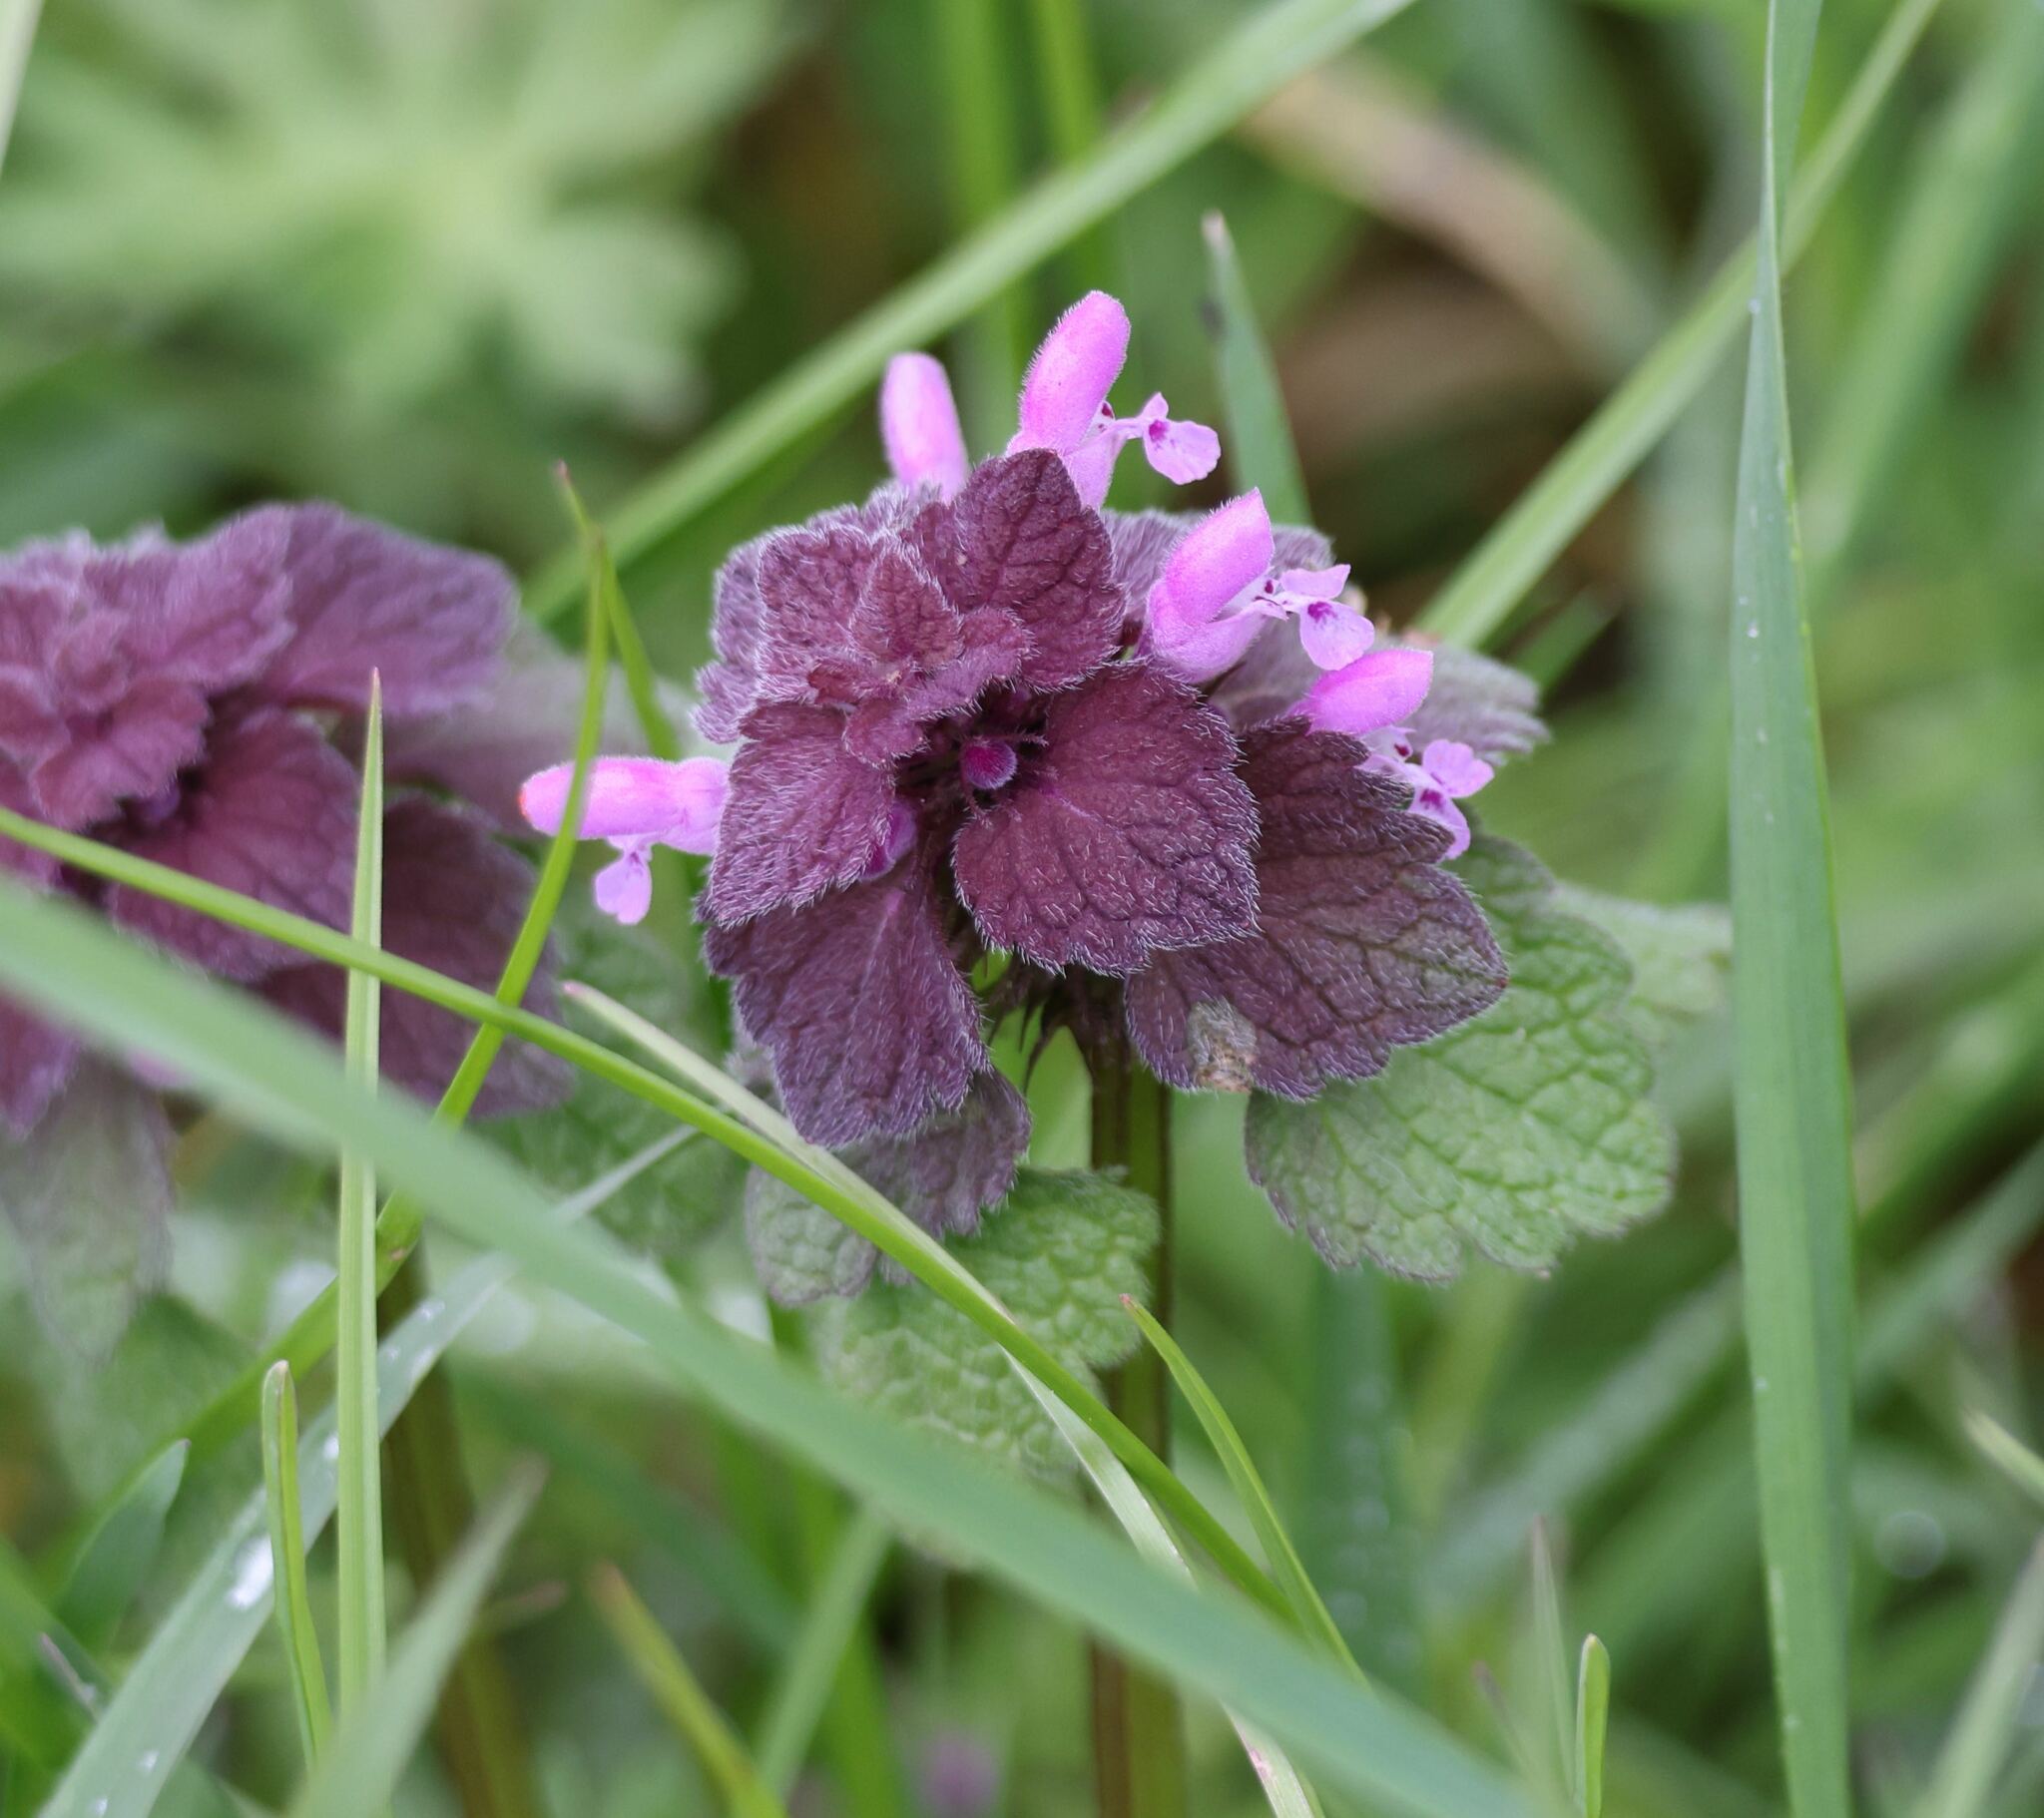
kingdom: Plantae
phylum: Tracheophyta
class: Magnoliopsida
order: Lamiales
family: Lamiaceae
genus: Lamium
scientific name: Lamium purpureum
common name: Red dead-nettle
